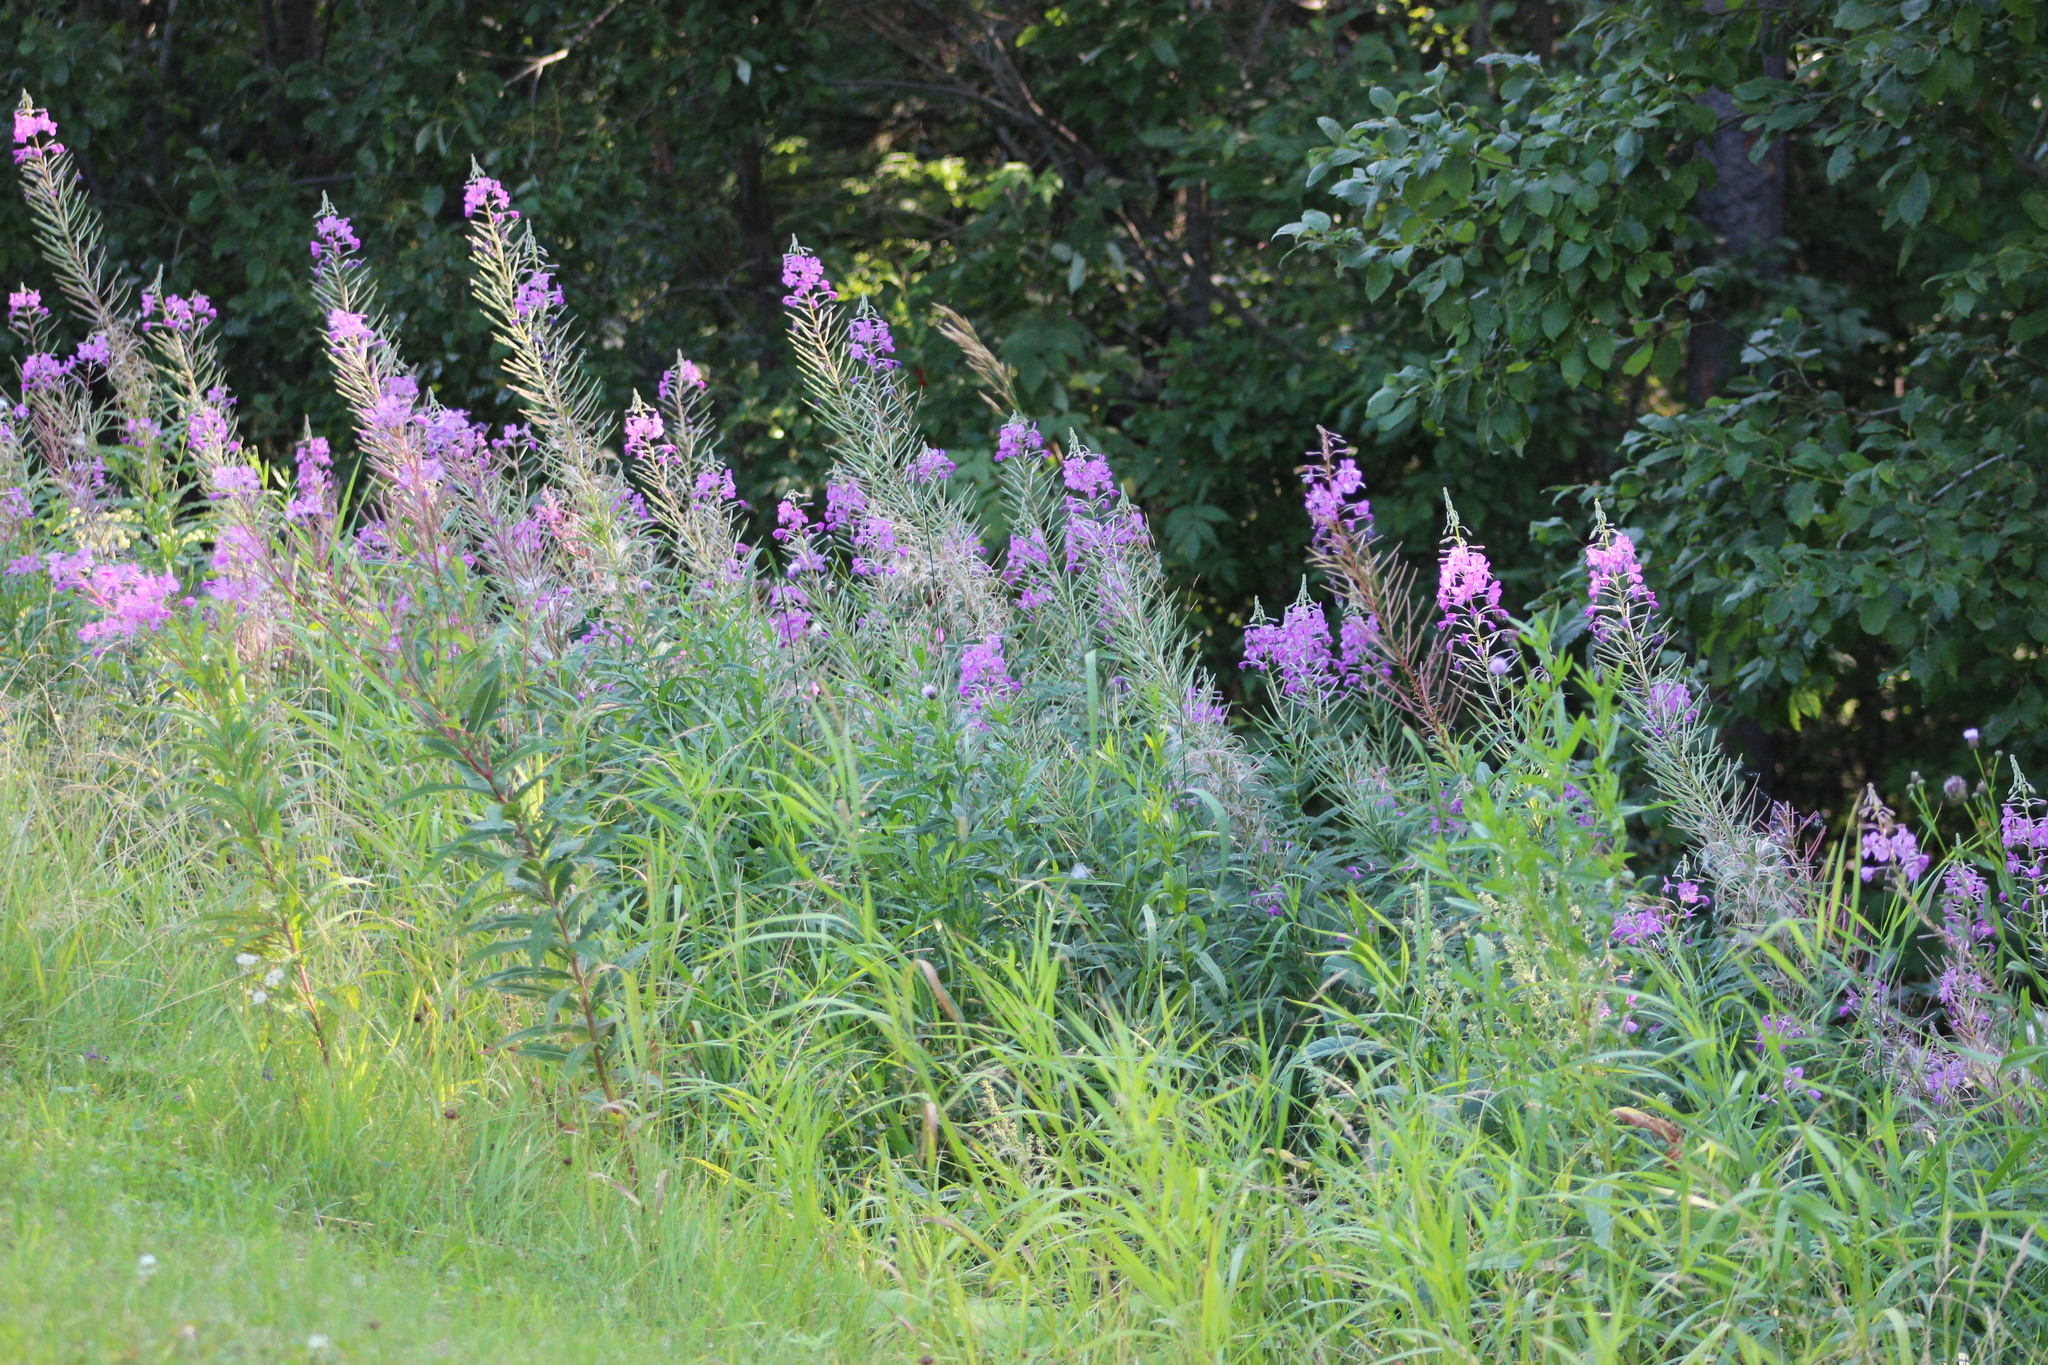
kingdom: Plantae
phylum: Tracheophyta
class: Magnoliopsida
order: Myrtales
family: Onagraceae
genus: Chamaenerion
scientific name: Chamaenerion angustifolium
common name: Fireweed
